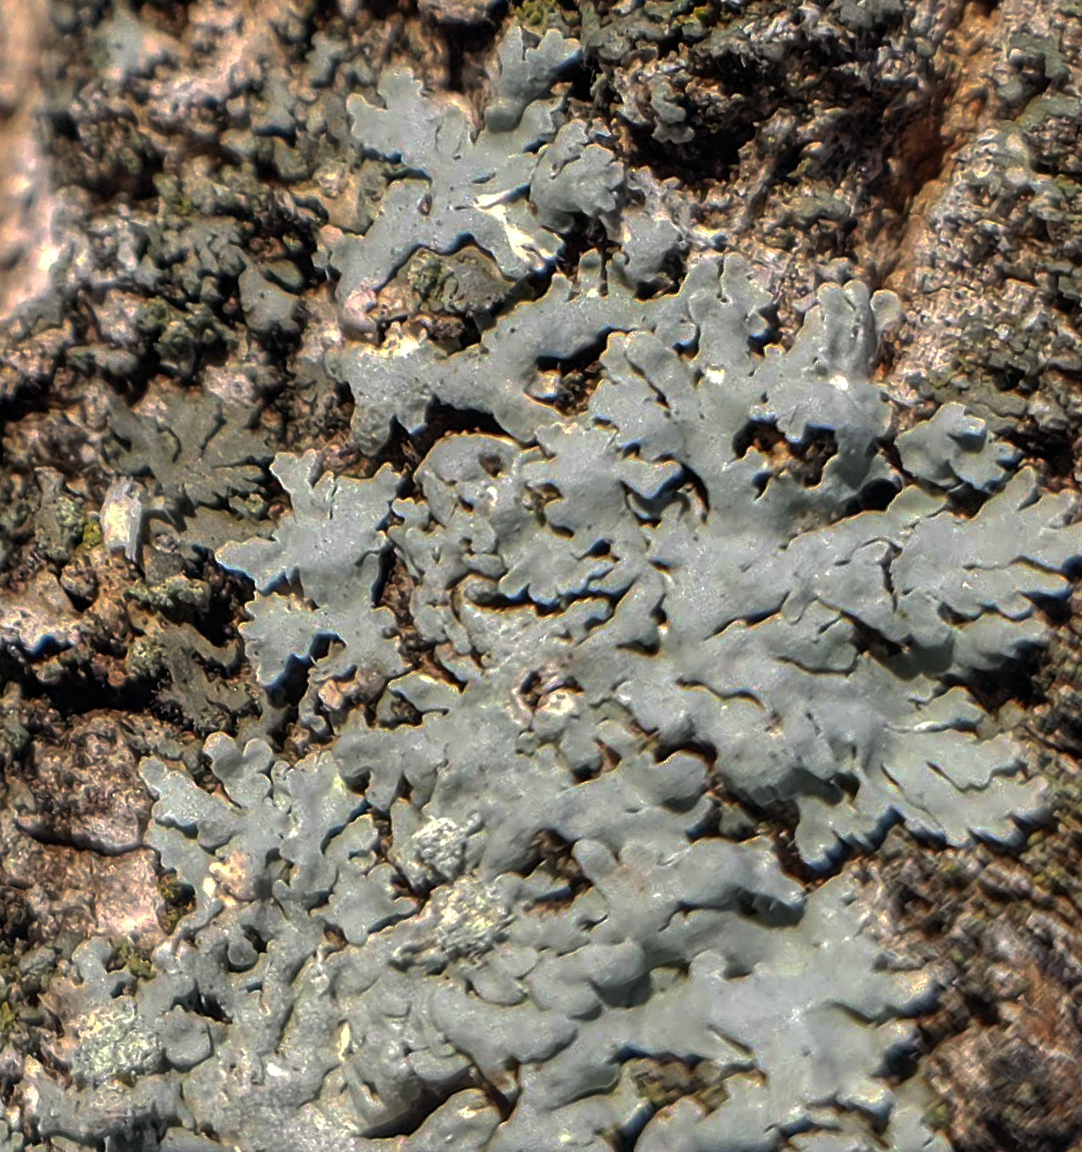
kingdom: Fungi
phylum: Ascomycota
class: Lecanoromycetes
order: Caliciales
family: Physciaceae
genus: Physcia
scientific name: Physcia americana
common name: American rosette lichen
